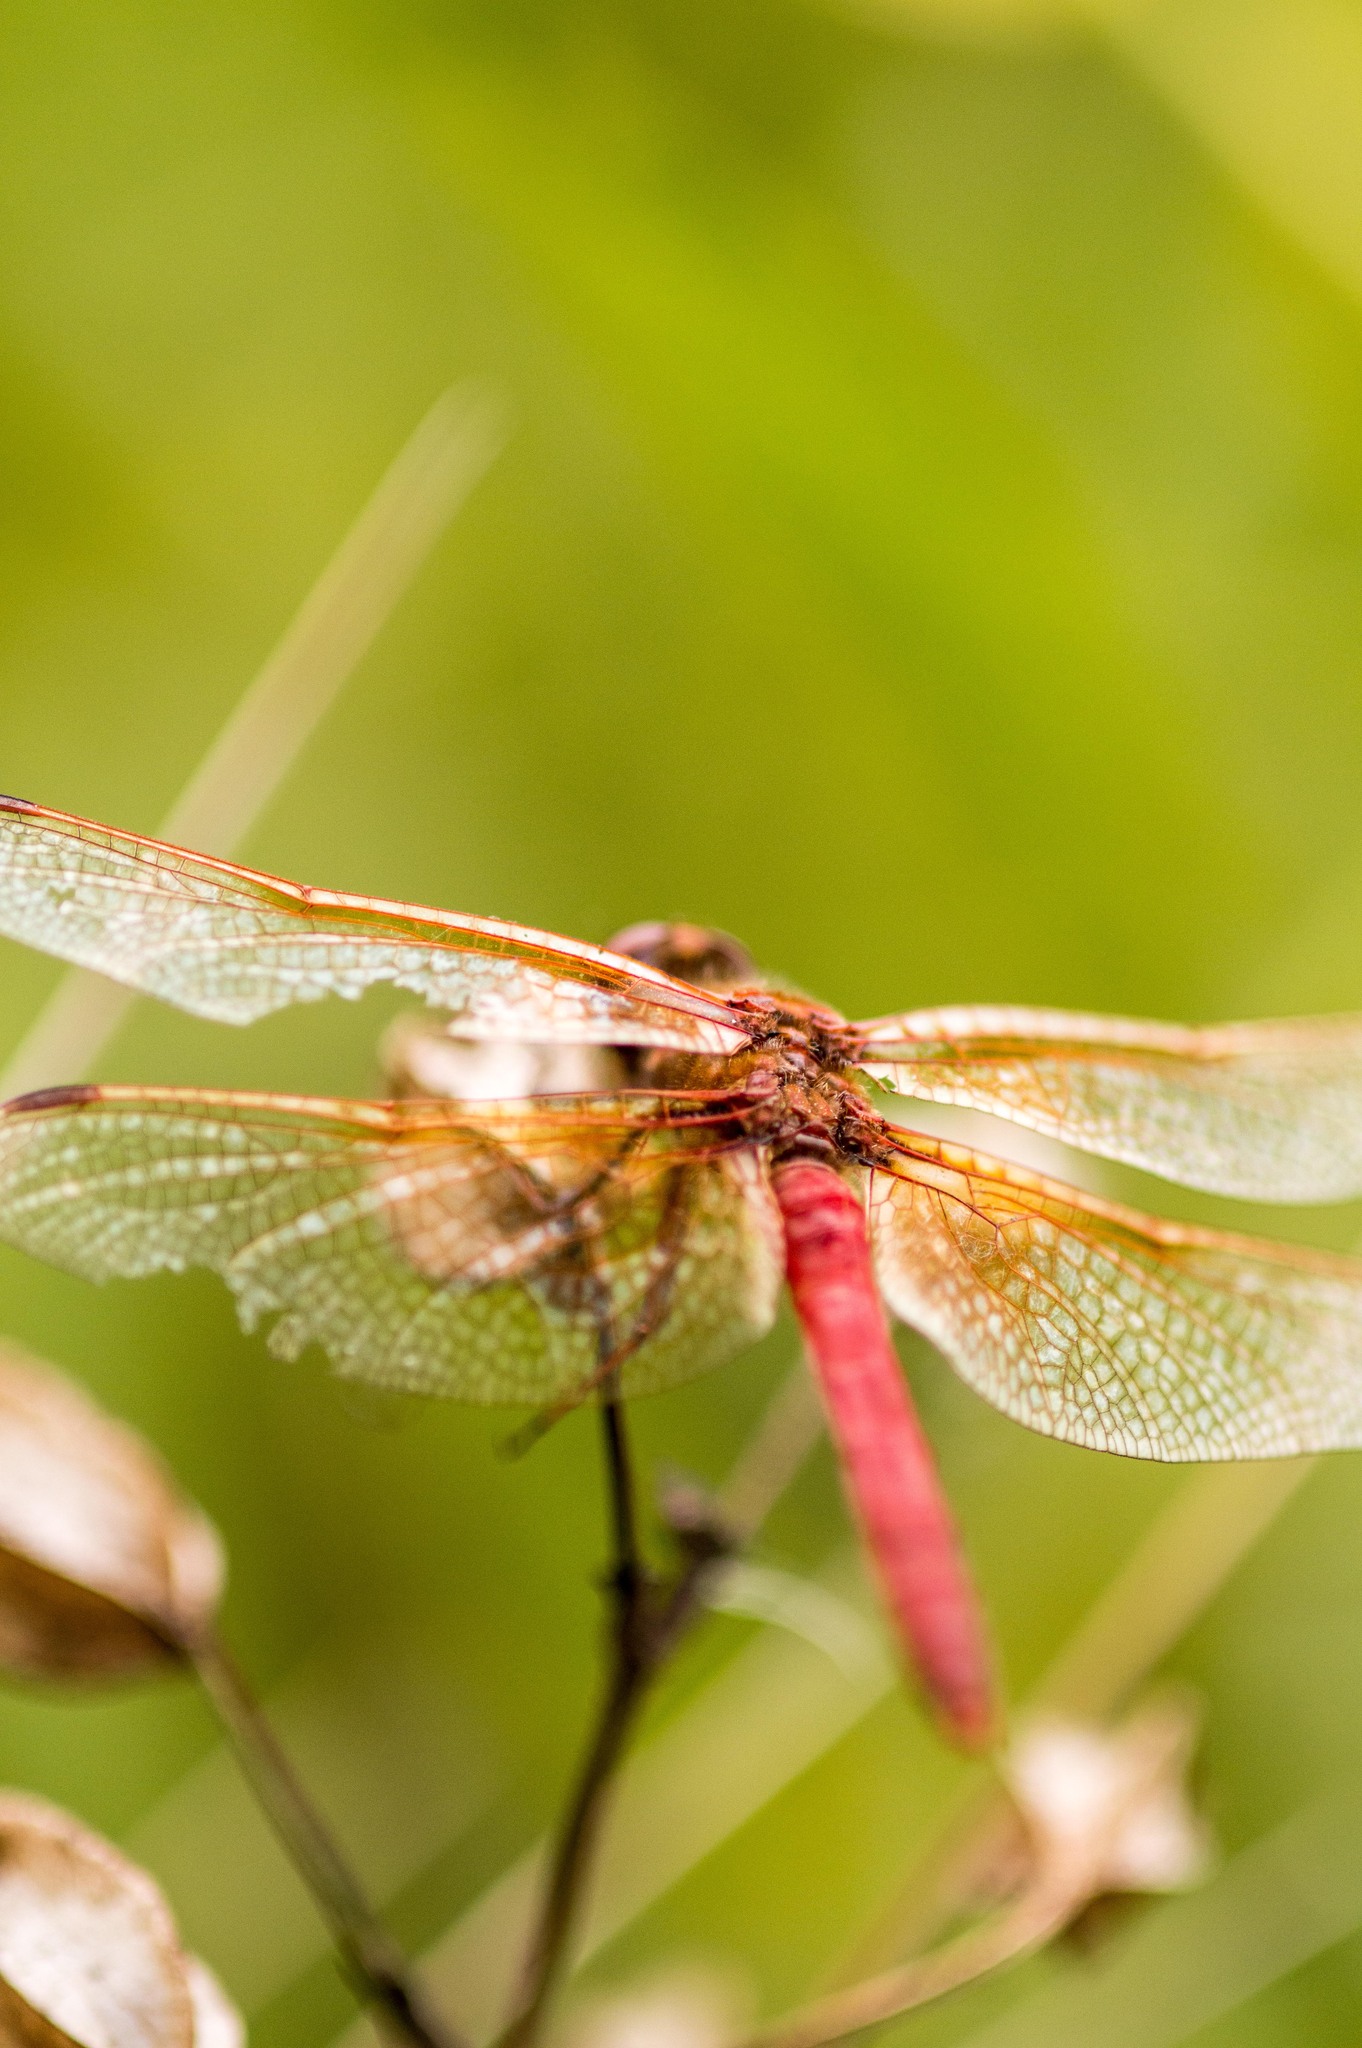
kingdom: Animalia
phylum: Arthropoda
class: Insecta
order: Odonata
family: Libellulidae
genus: Sympetrum
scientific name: Sympetrum illotum
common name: Cardinal meadowhawk
